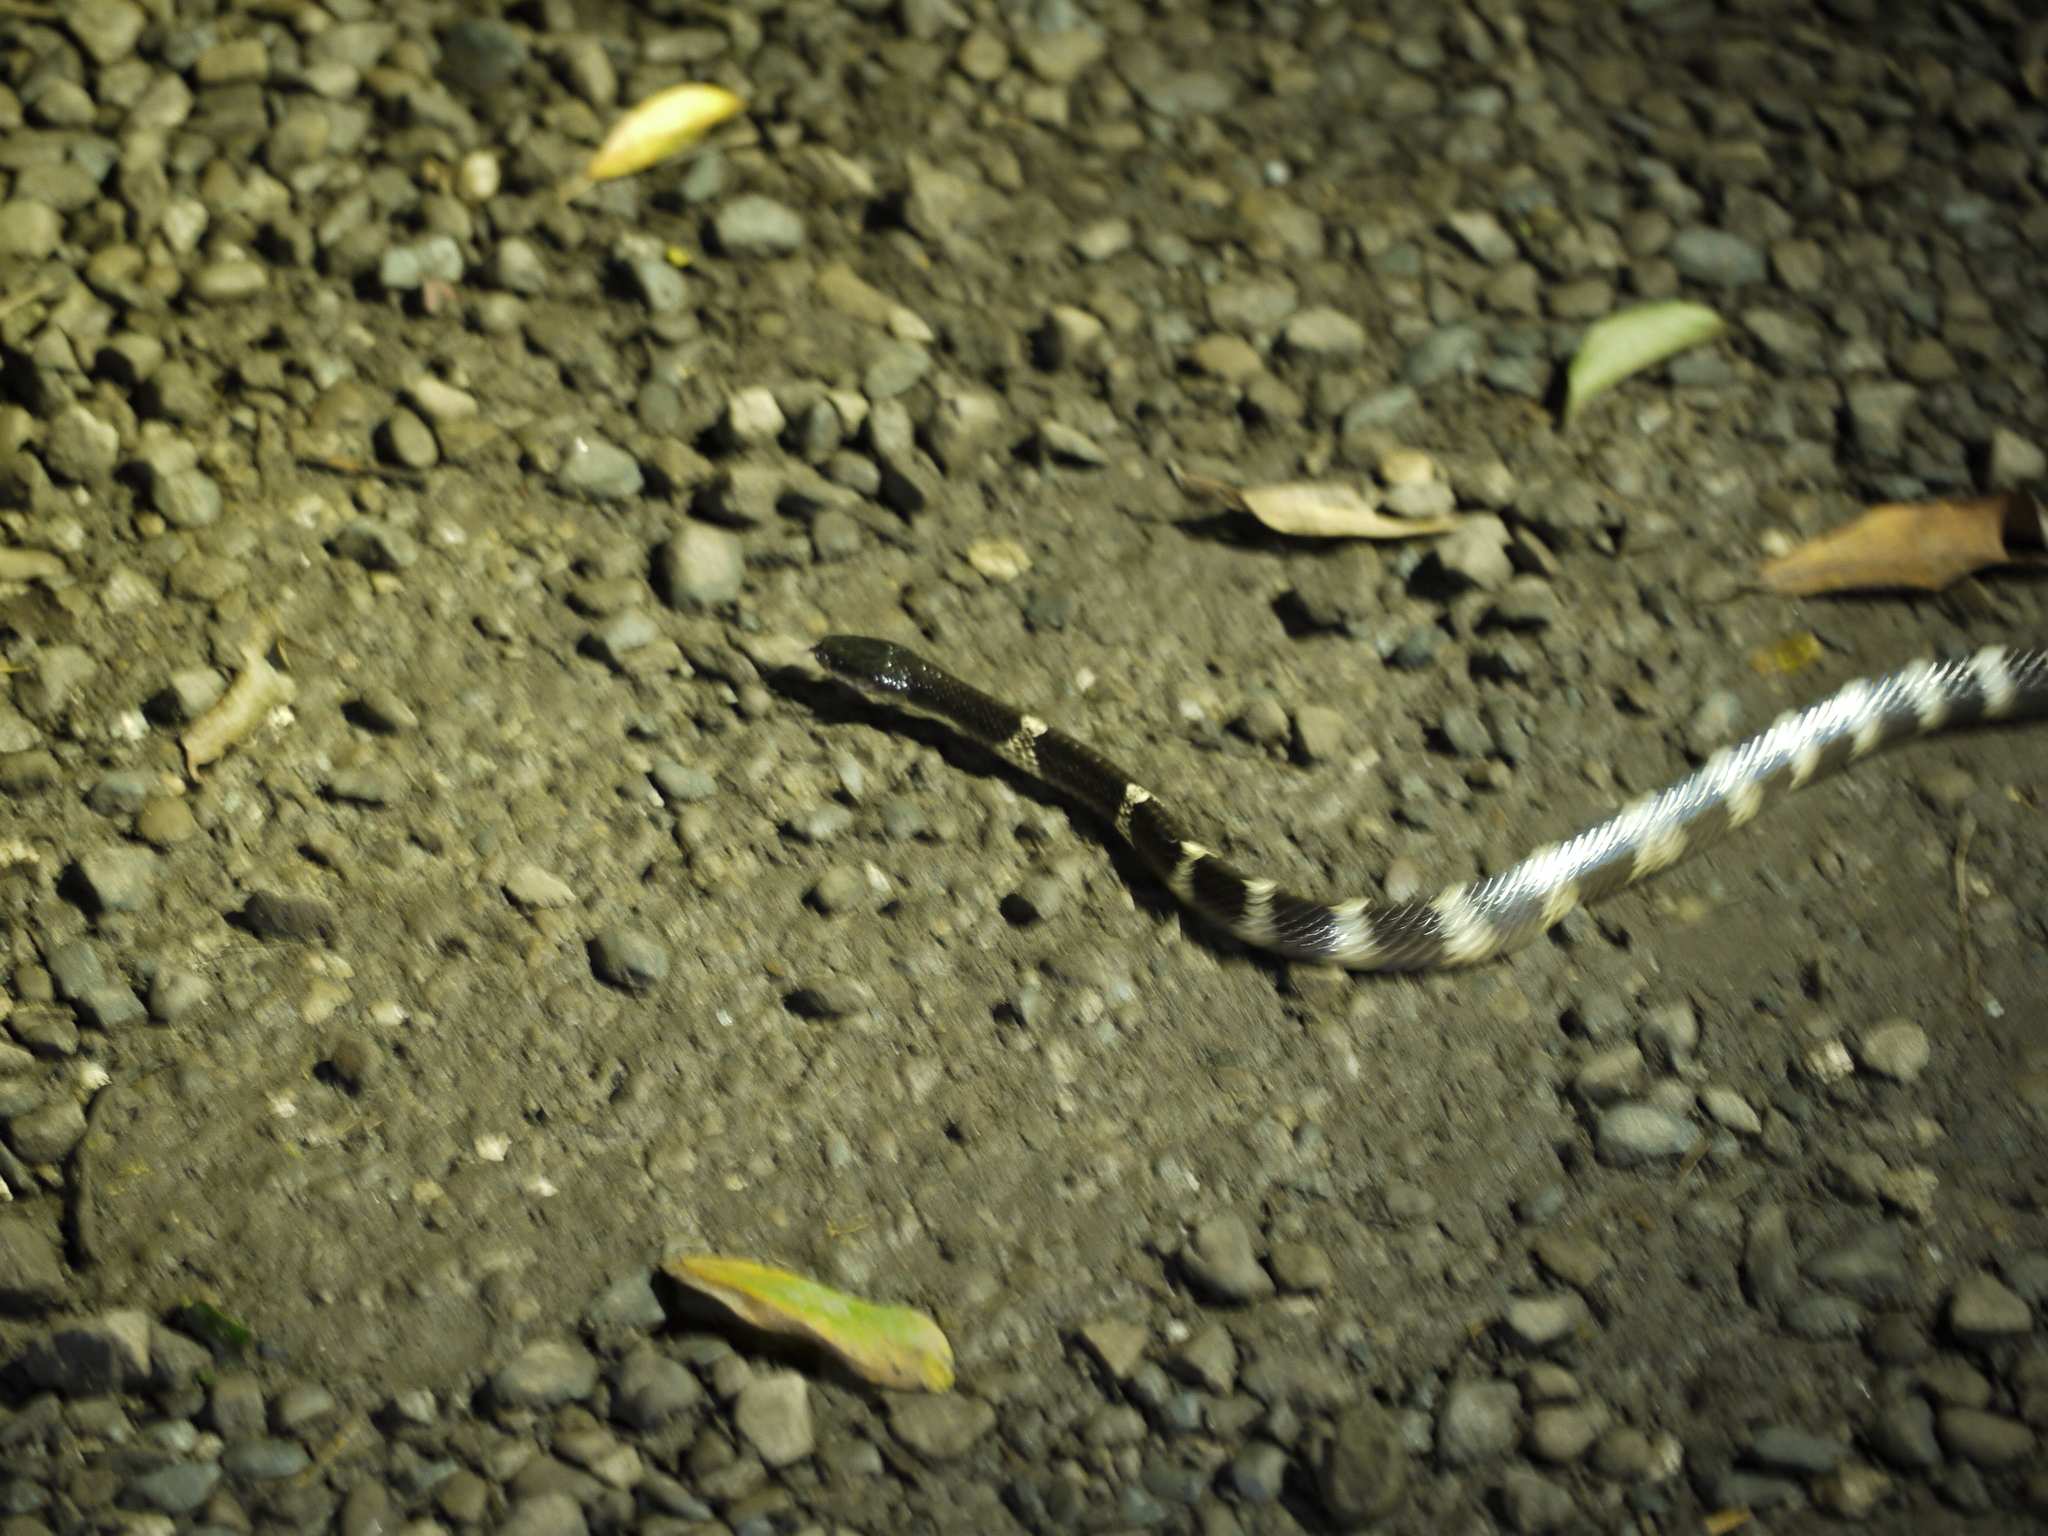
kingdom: Animalia
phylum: Chordata
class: Squamata
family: Elapidae
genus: Bungarus
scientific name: Bungarus multicinctus
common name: Many-banded krait
